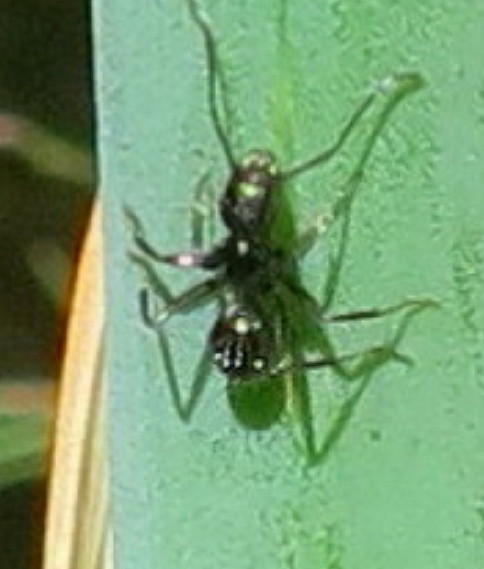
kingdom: Animalia
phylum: Arthropoda
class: Insecta
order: Hymenoptera
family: Formicidae
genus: Camponotus
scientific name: Camponotus niveosetosus
